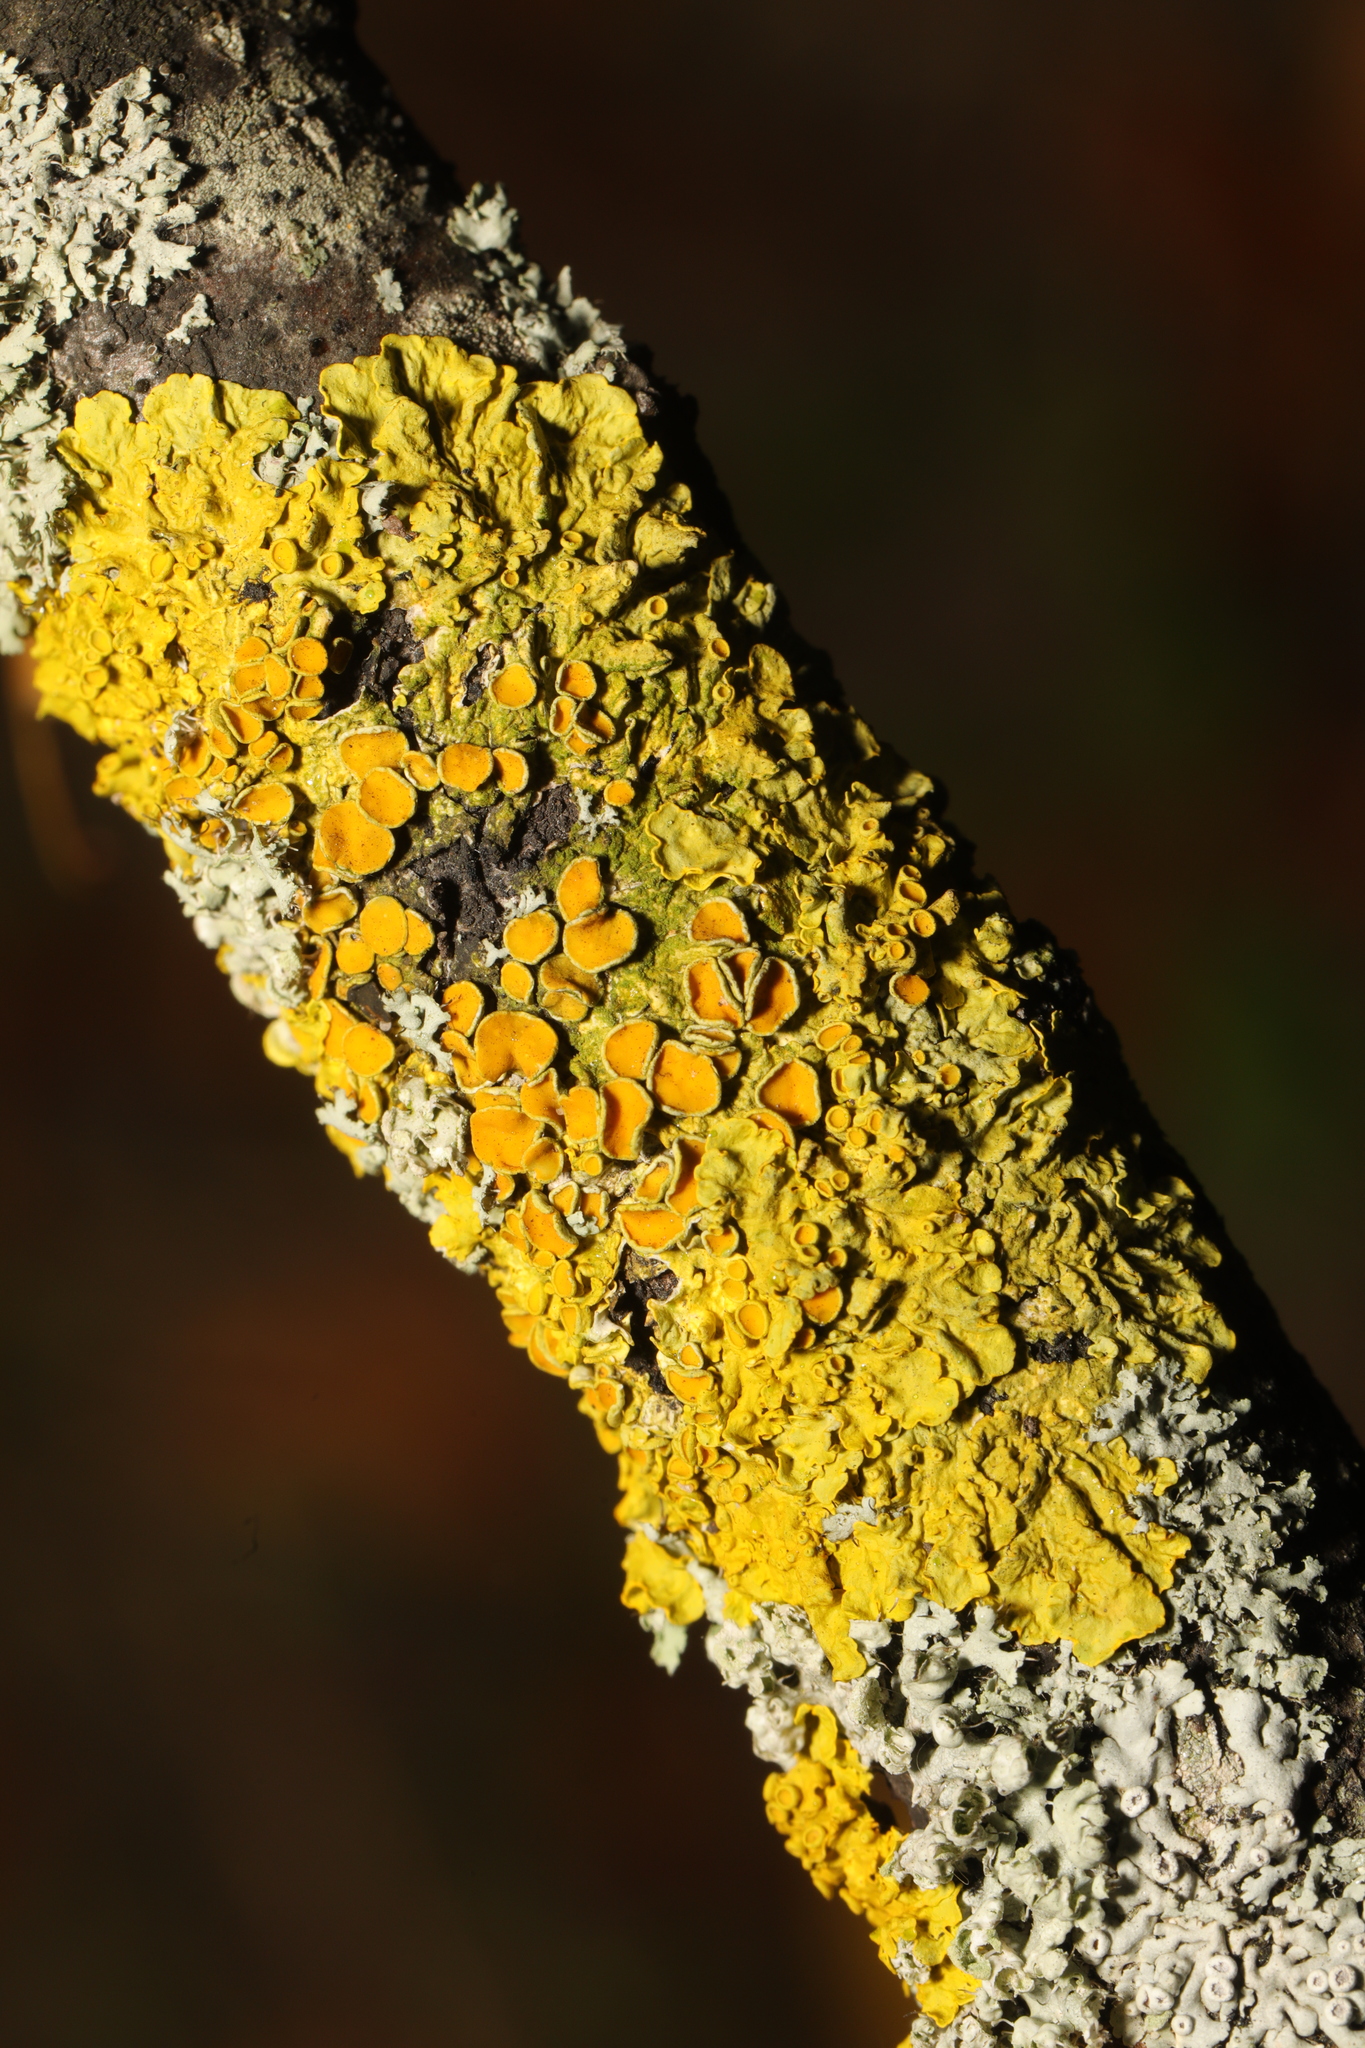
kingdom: Fungi
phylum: Ascomycota
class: Lecanoromycetes
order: Teloschistales
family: Teloschistaceae
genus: Xanthoria
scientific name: Xanthoria parietina
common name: Common orange lichen
